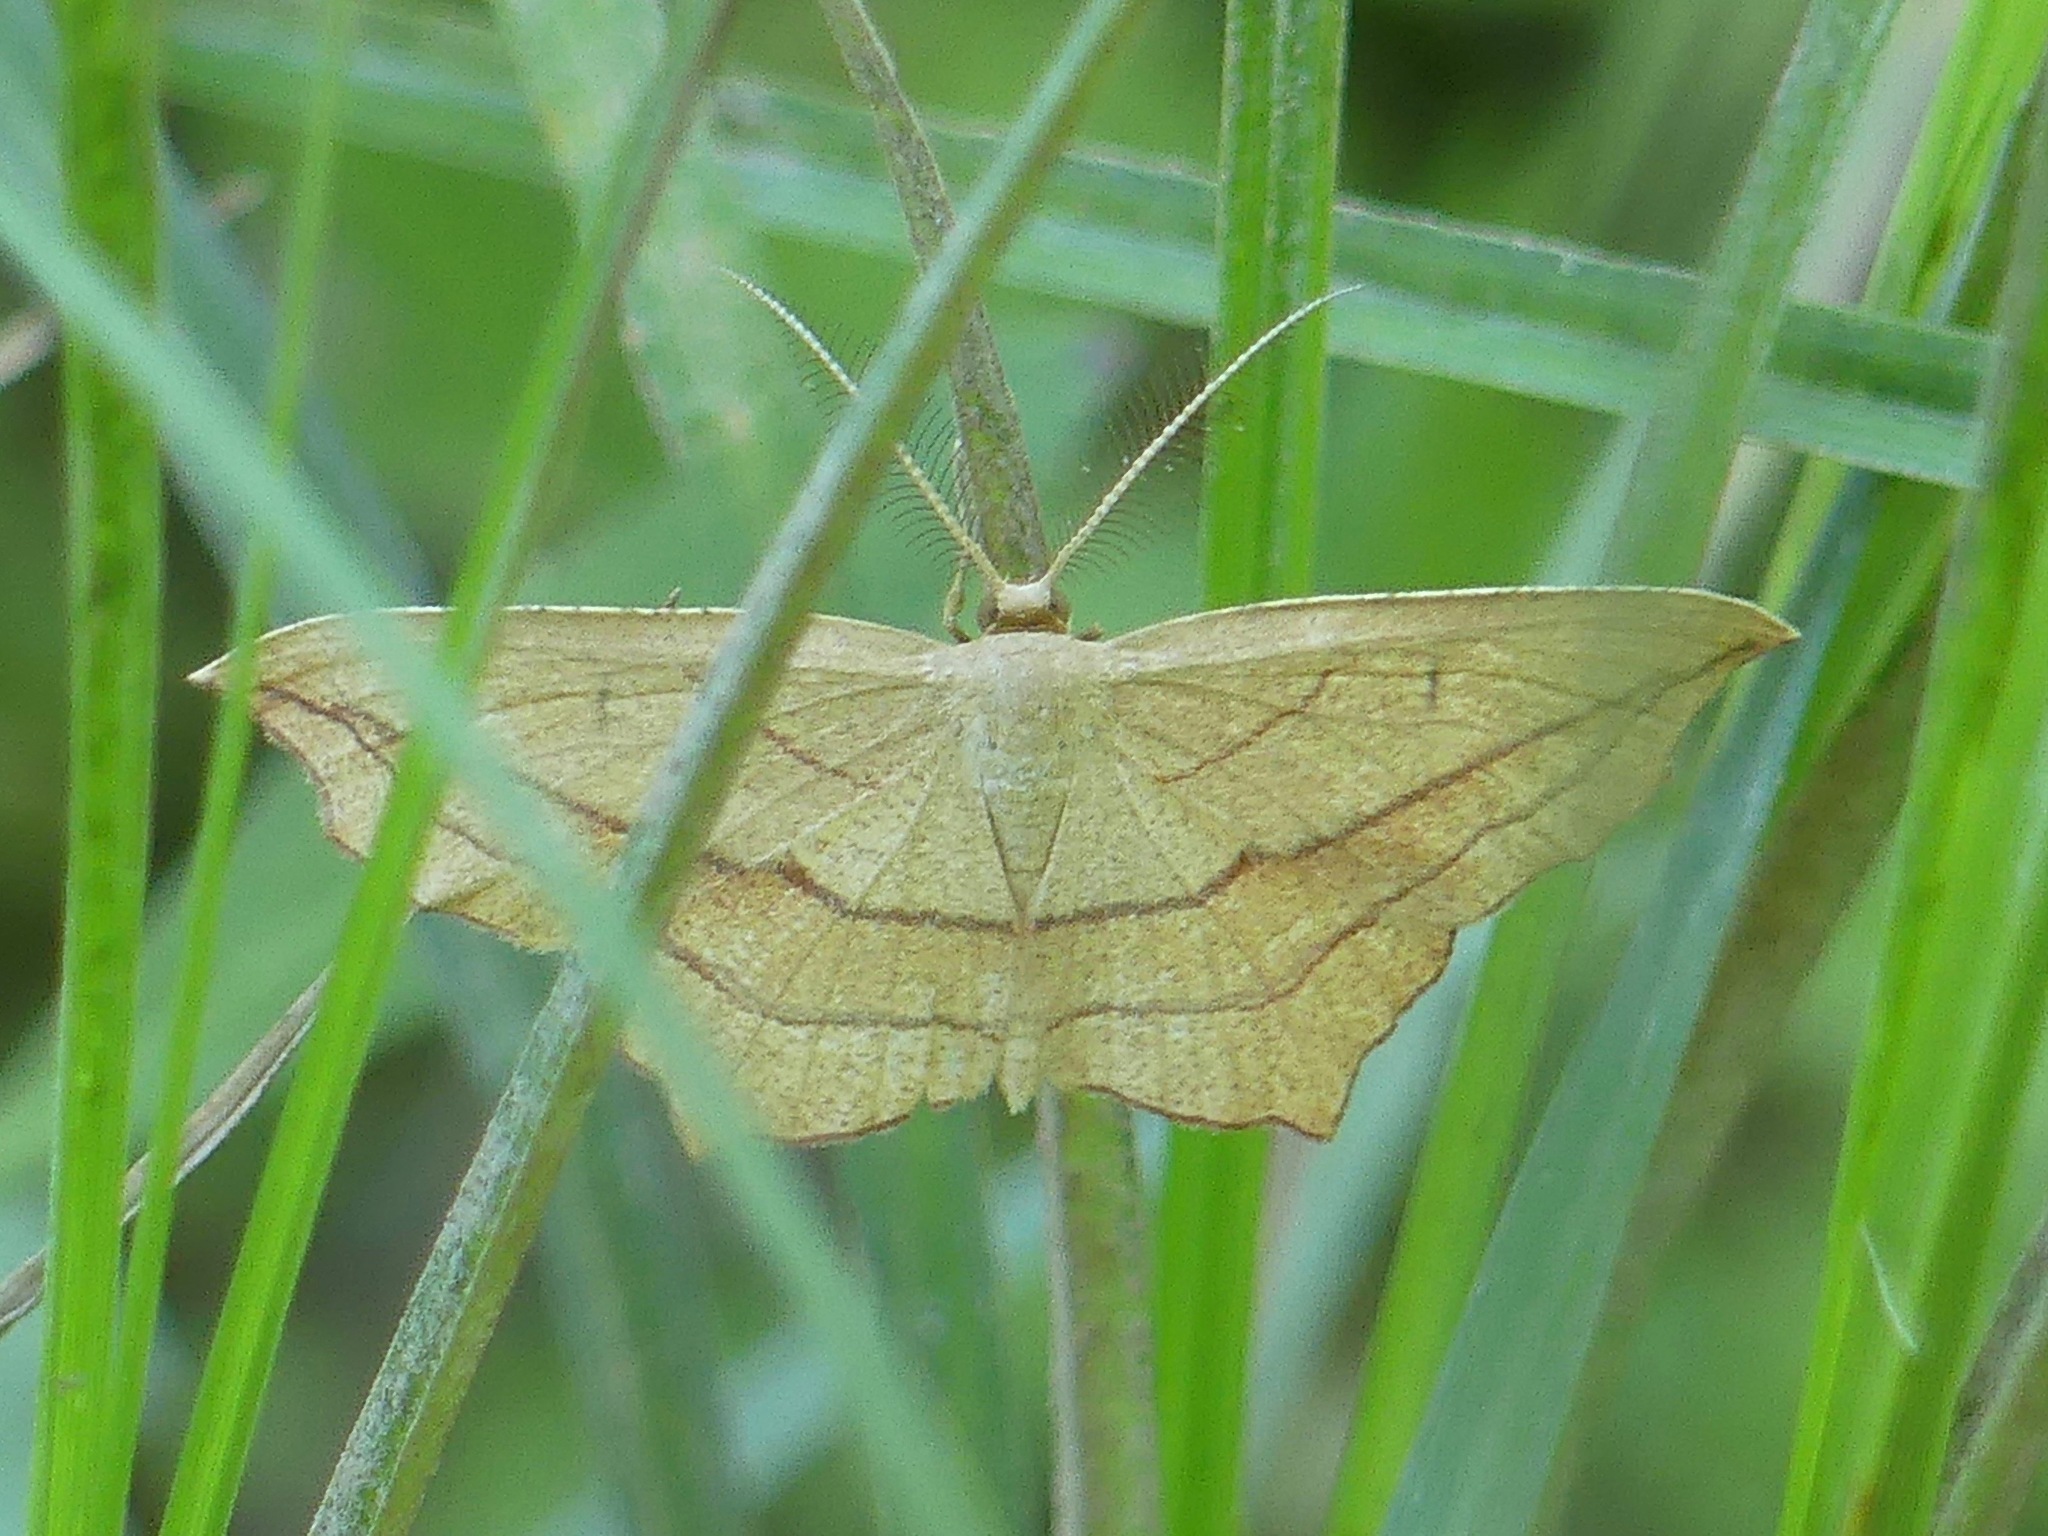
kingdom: Animalia
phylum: Arthropoda
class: Insecta
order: Lepidoptera
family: Geometridae
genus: Timandra
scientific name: Timandra amaturaria
